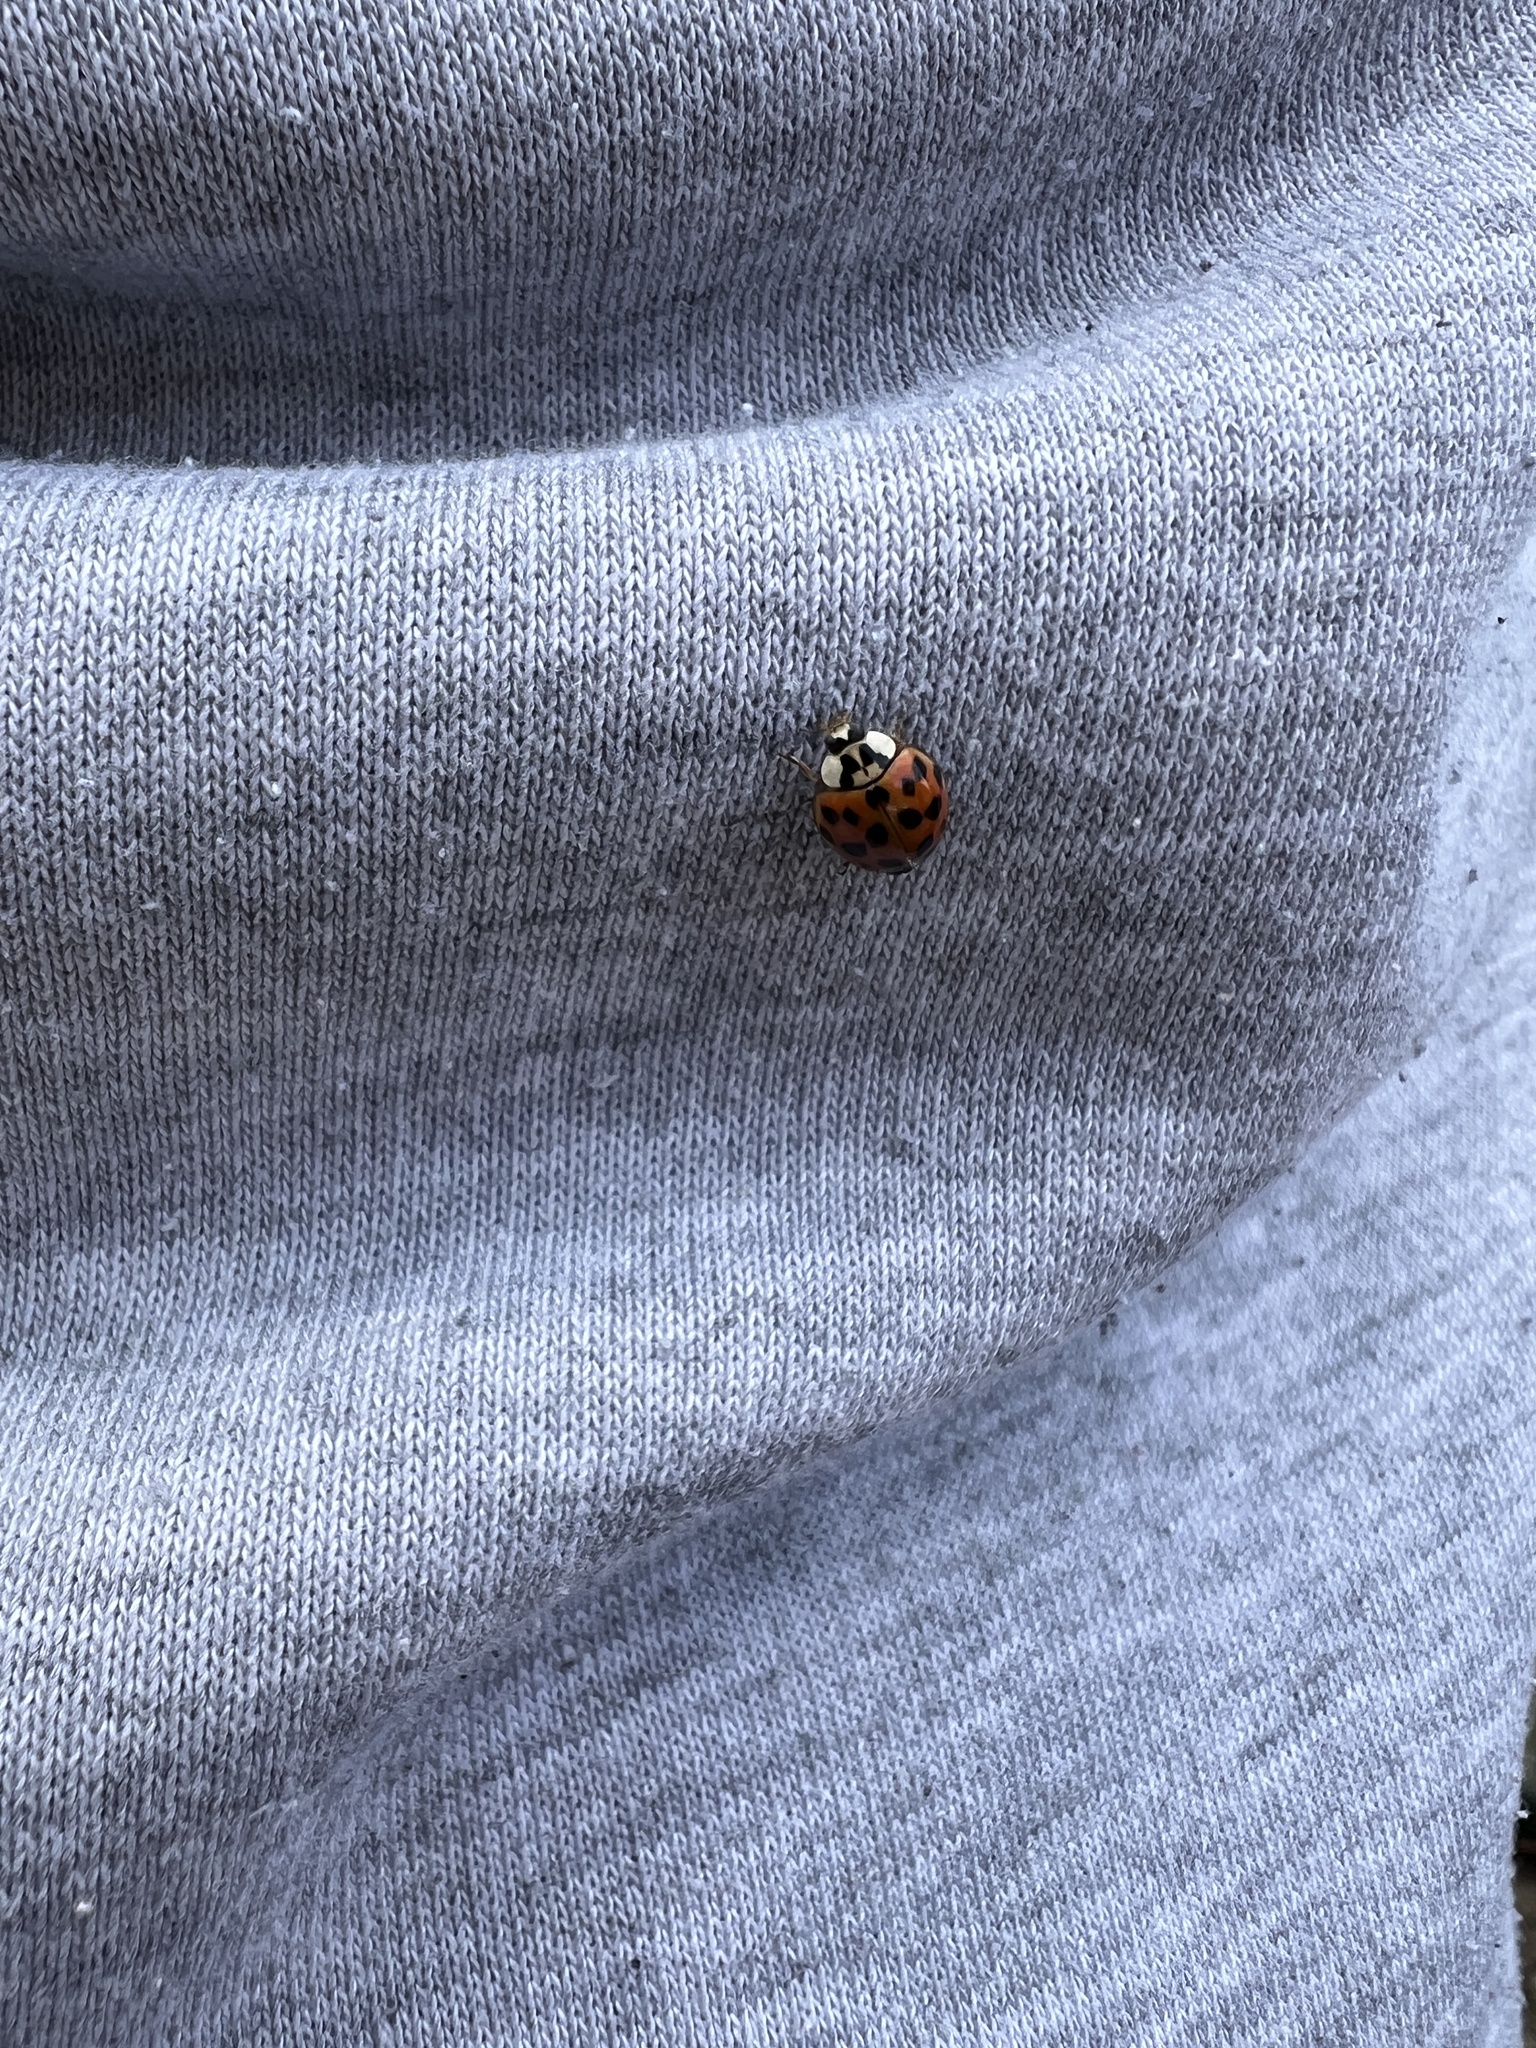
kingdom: Animalia
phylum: Arthropoda
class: Insecta
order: Coleoptera
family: Coccinellidae
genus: Harmonia
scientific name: Harmonia axyridis
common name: Harlequin ladybird
